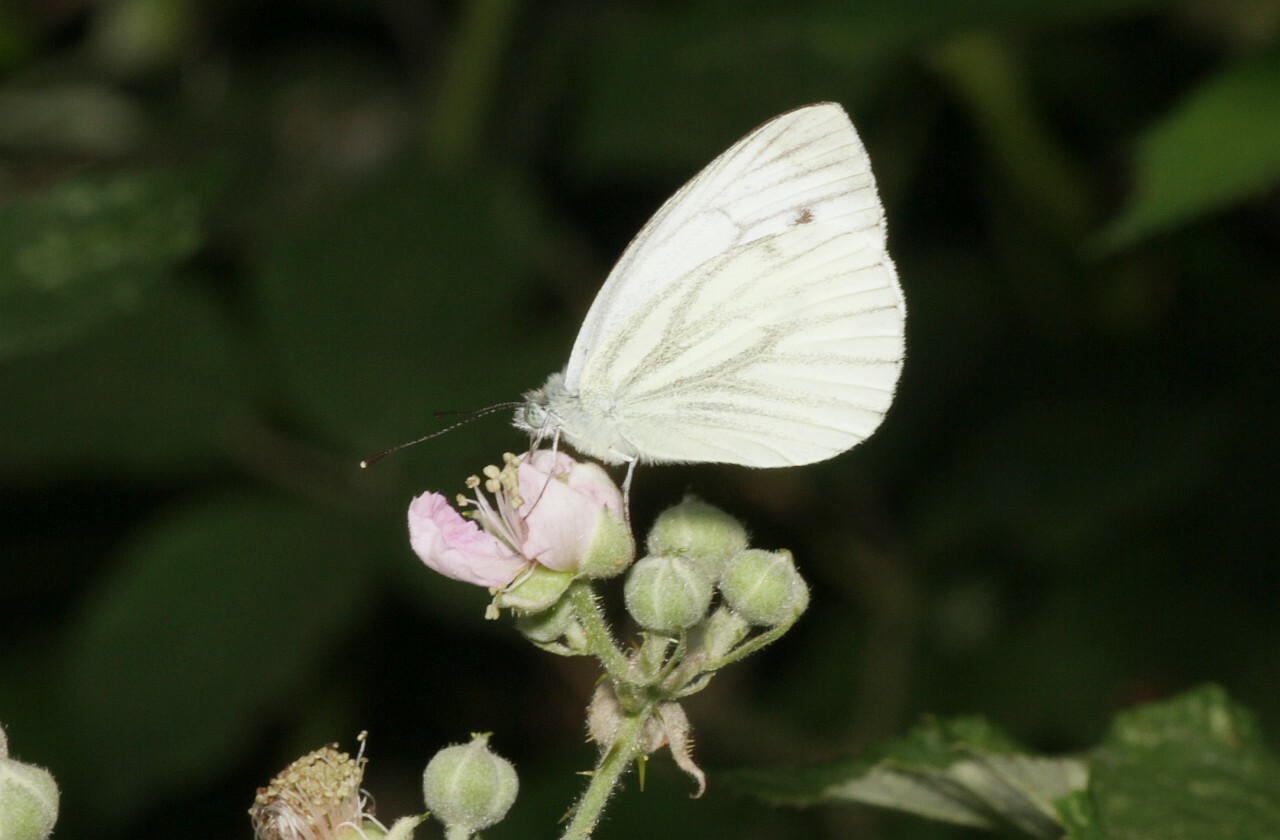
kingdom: Animalia
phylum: Arthropoda
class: Insecta
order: Lepidoptera
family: Pieridae
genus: Pieris
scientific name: Pieris napi
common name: Green-veined white
